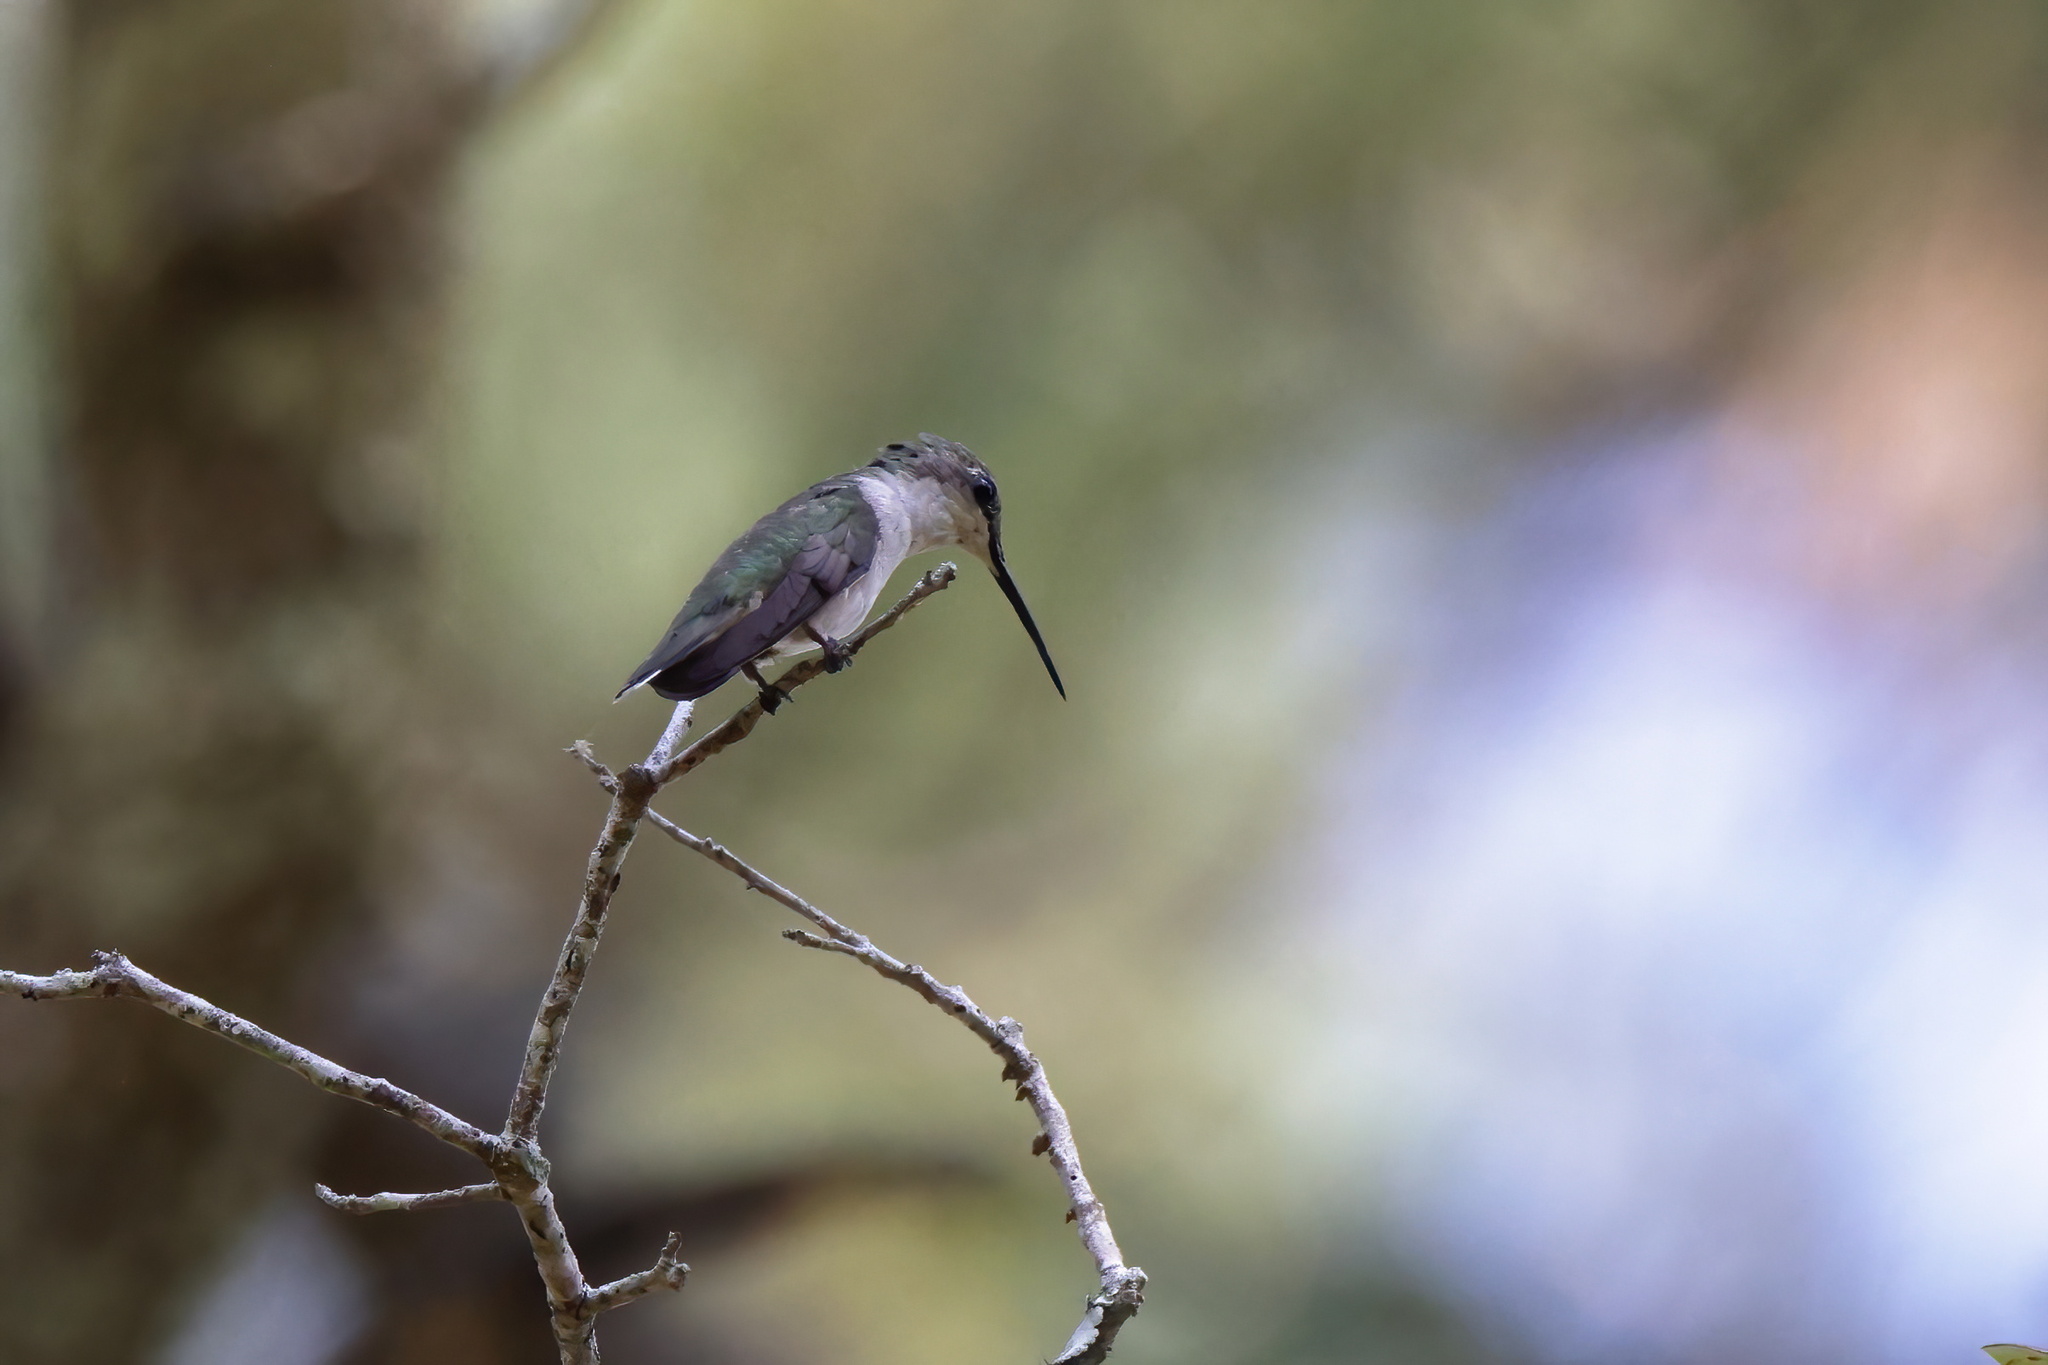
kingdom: Animalia
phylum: Chordata
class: Aves
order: Apodiformes
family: Trochilidae
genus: Archilochus
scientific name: Archilochus colubris
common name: Ruby-throated hummingbird
